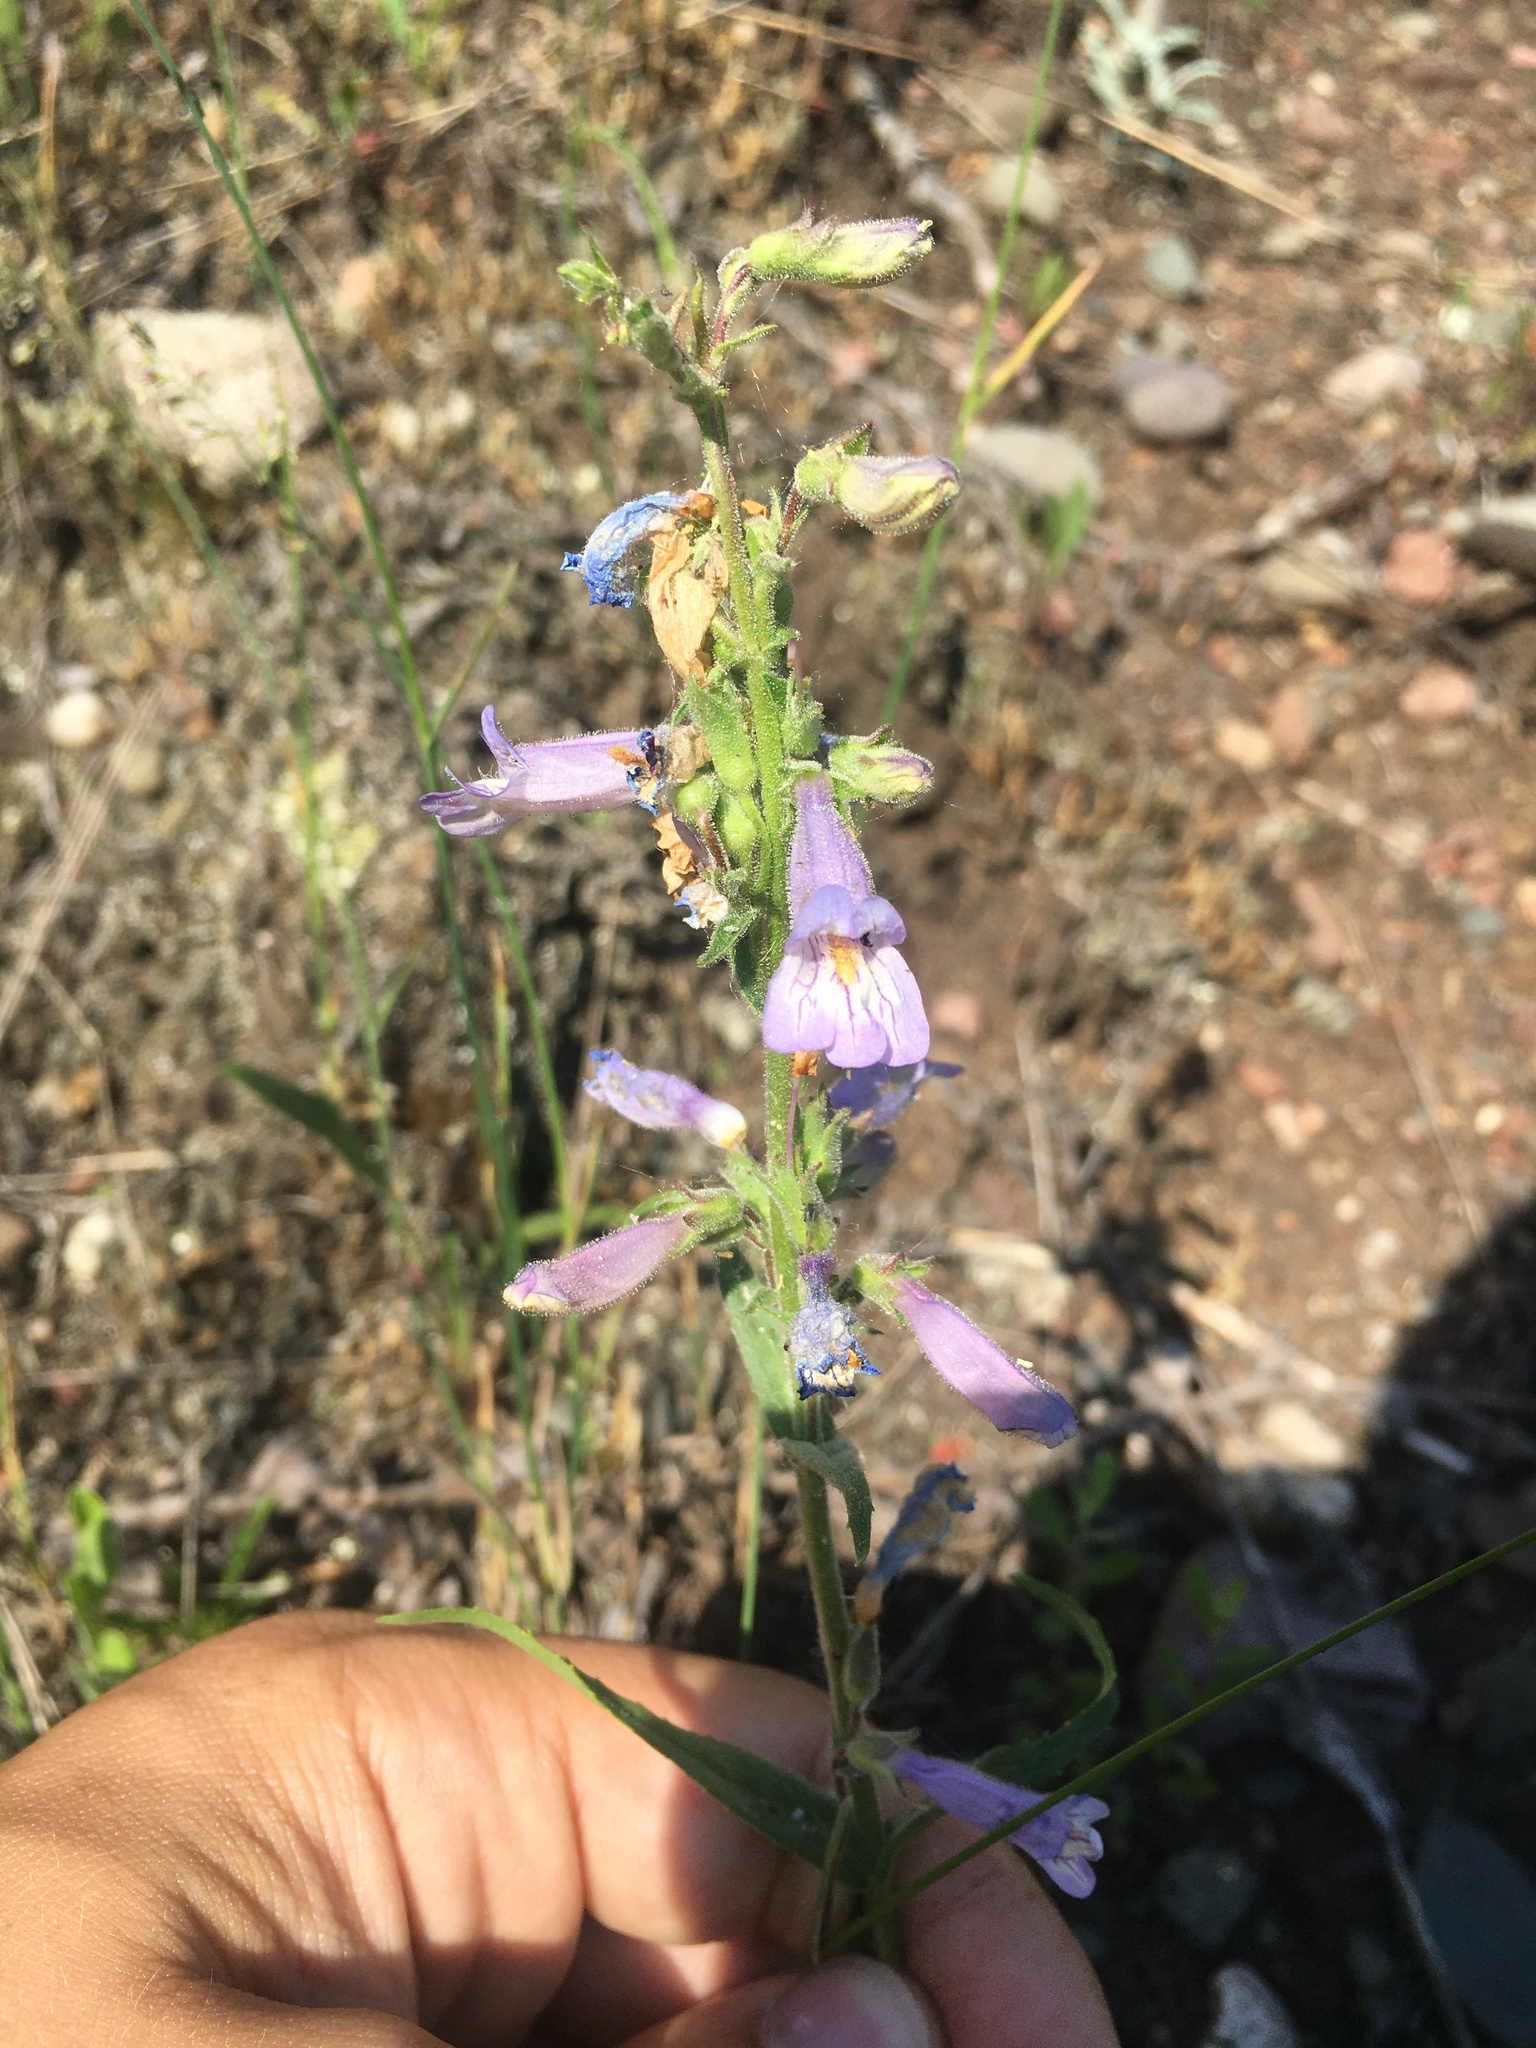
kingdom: Plantae
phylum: Tracheophyta
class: Magnoliopsida
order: Lamiales
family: Plantaginaceae
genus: Penstemon
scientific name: Penstemon gracilis
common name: Slender beardtongue
